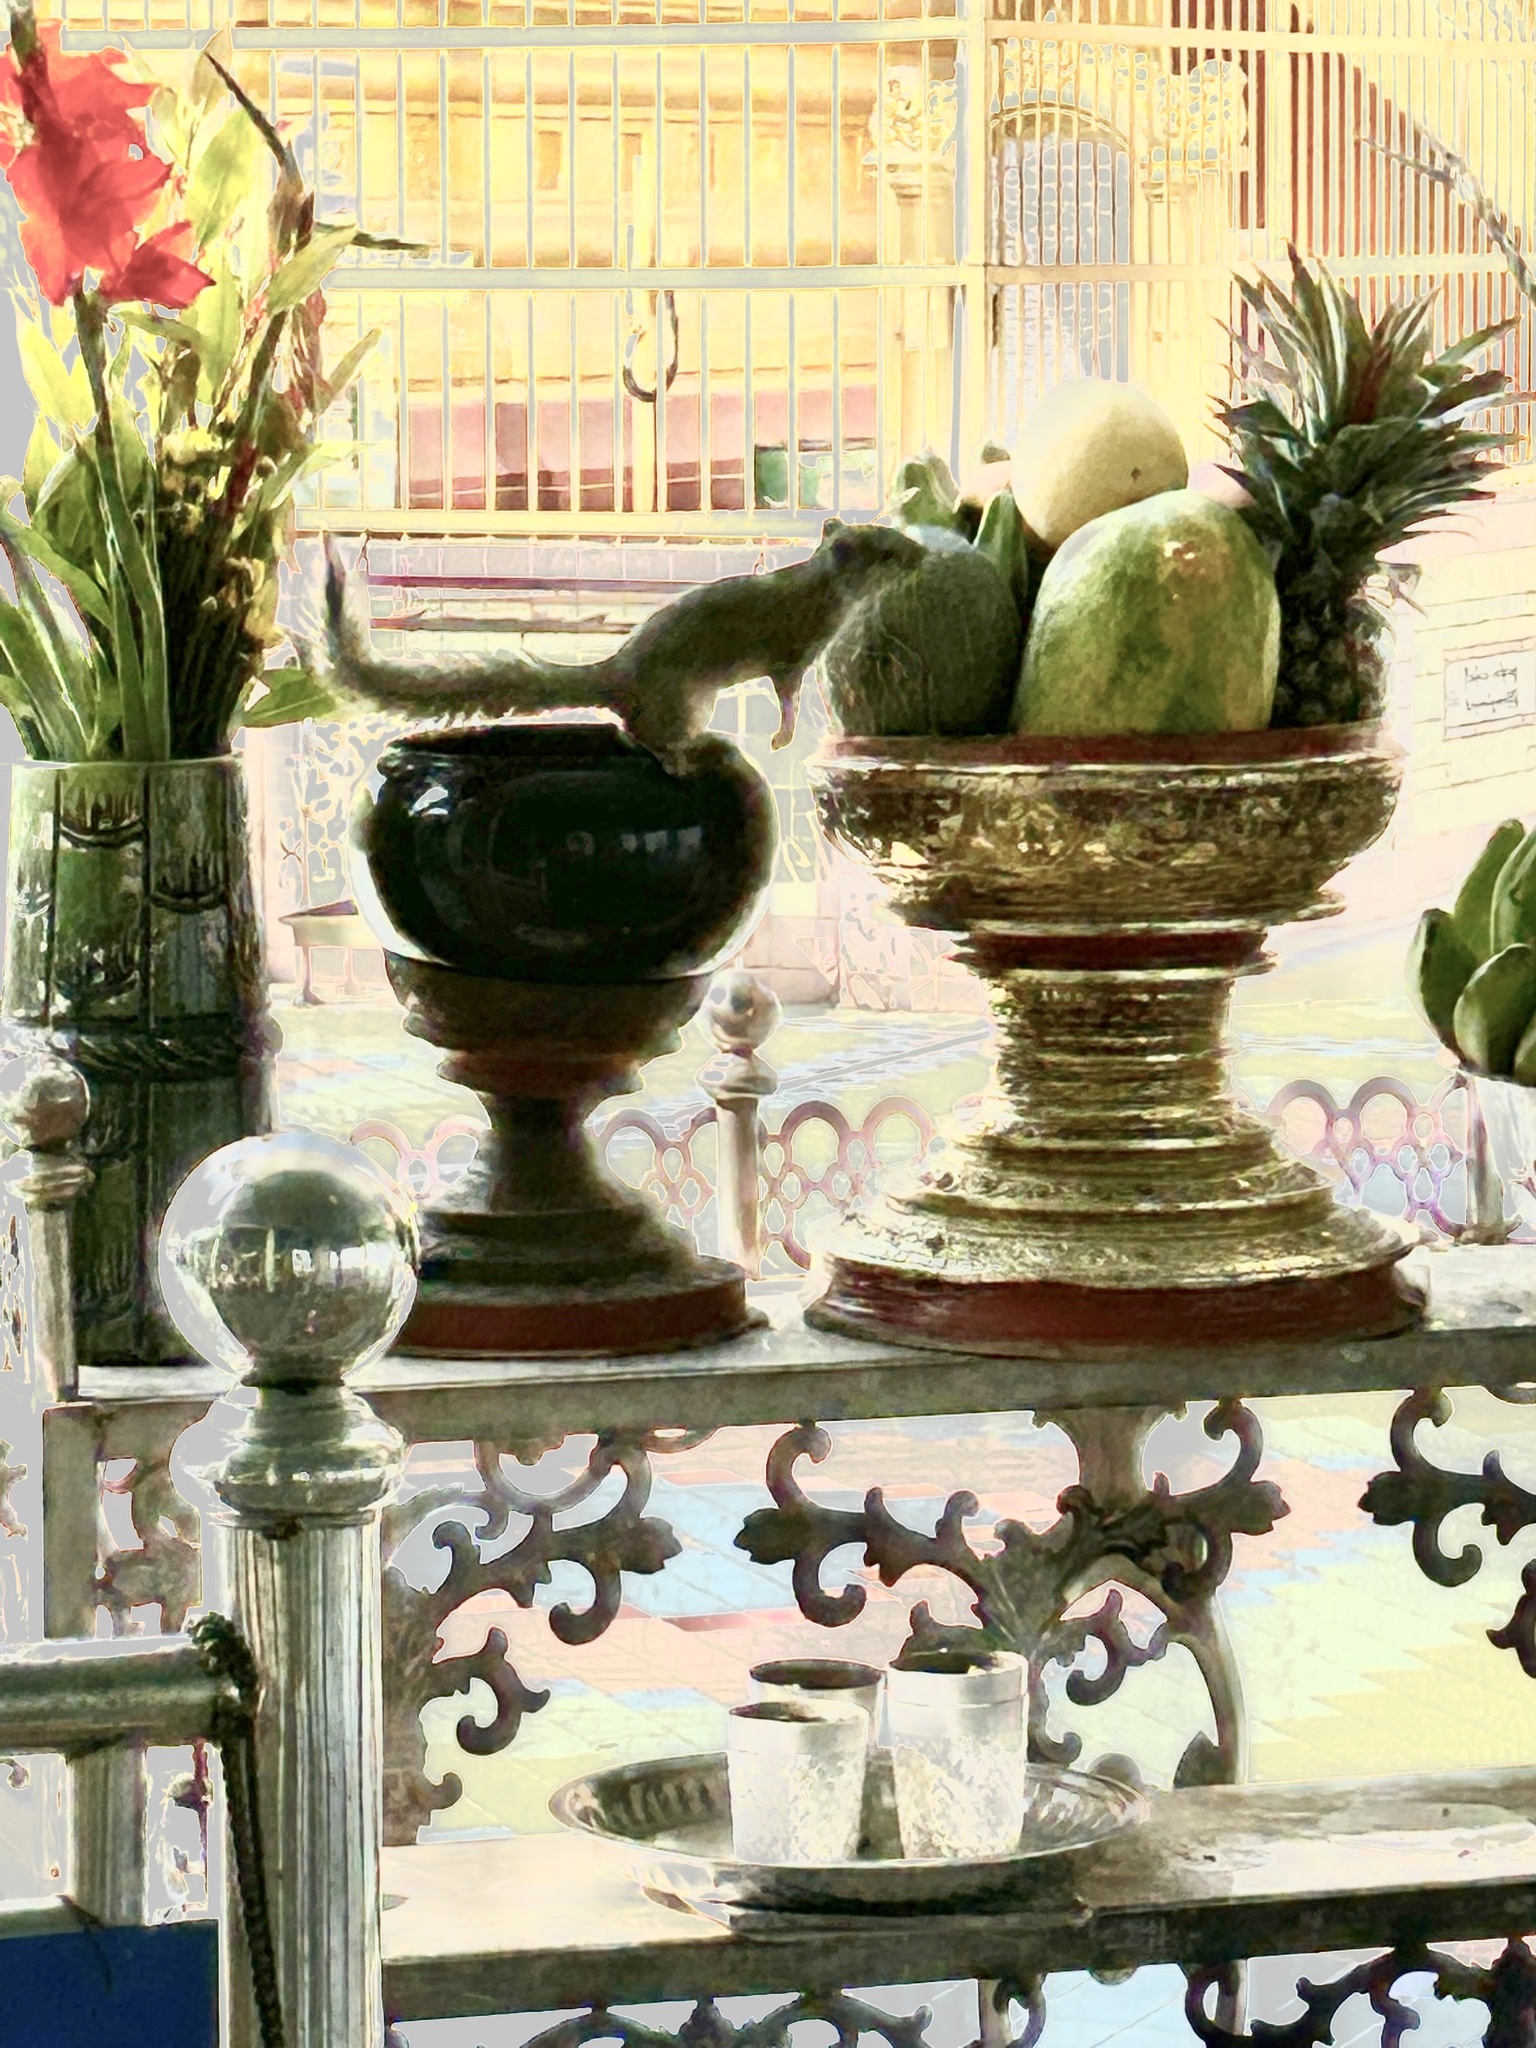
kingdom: Animalia
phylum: Chordata
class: Mammalia
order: Rodentia
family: Sciuridae
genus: Callosciurus
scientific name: Callosciurus pygerythrus
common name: Irrawaddy squirrel
